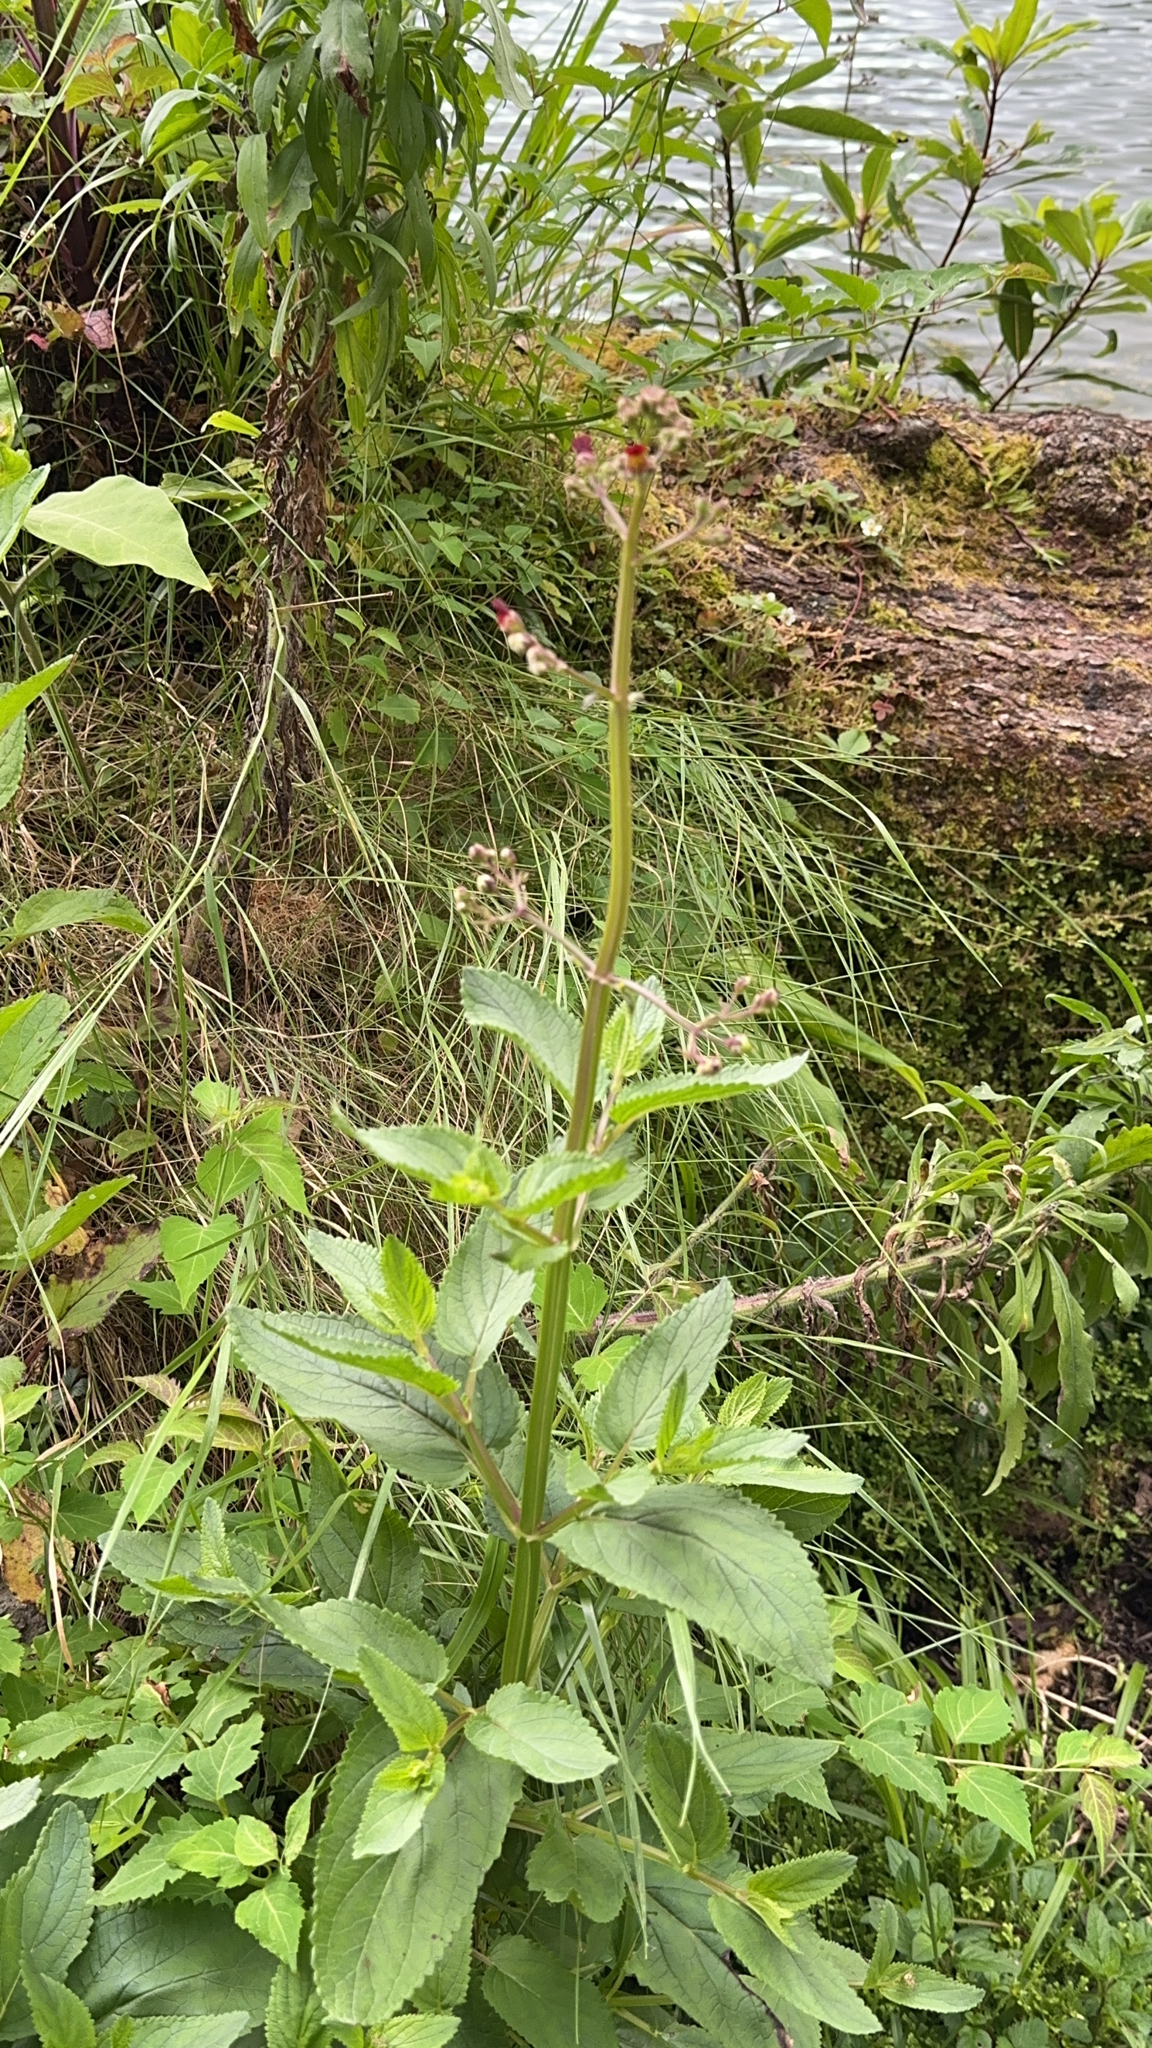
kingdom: Plantae
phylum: Tracheophyta
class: Magnoliopsida
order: Lamiales
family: Scrophulariaceae
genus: Scrophularia
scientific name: Scrophularia auriculata
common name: Water betony
